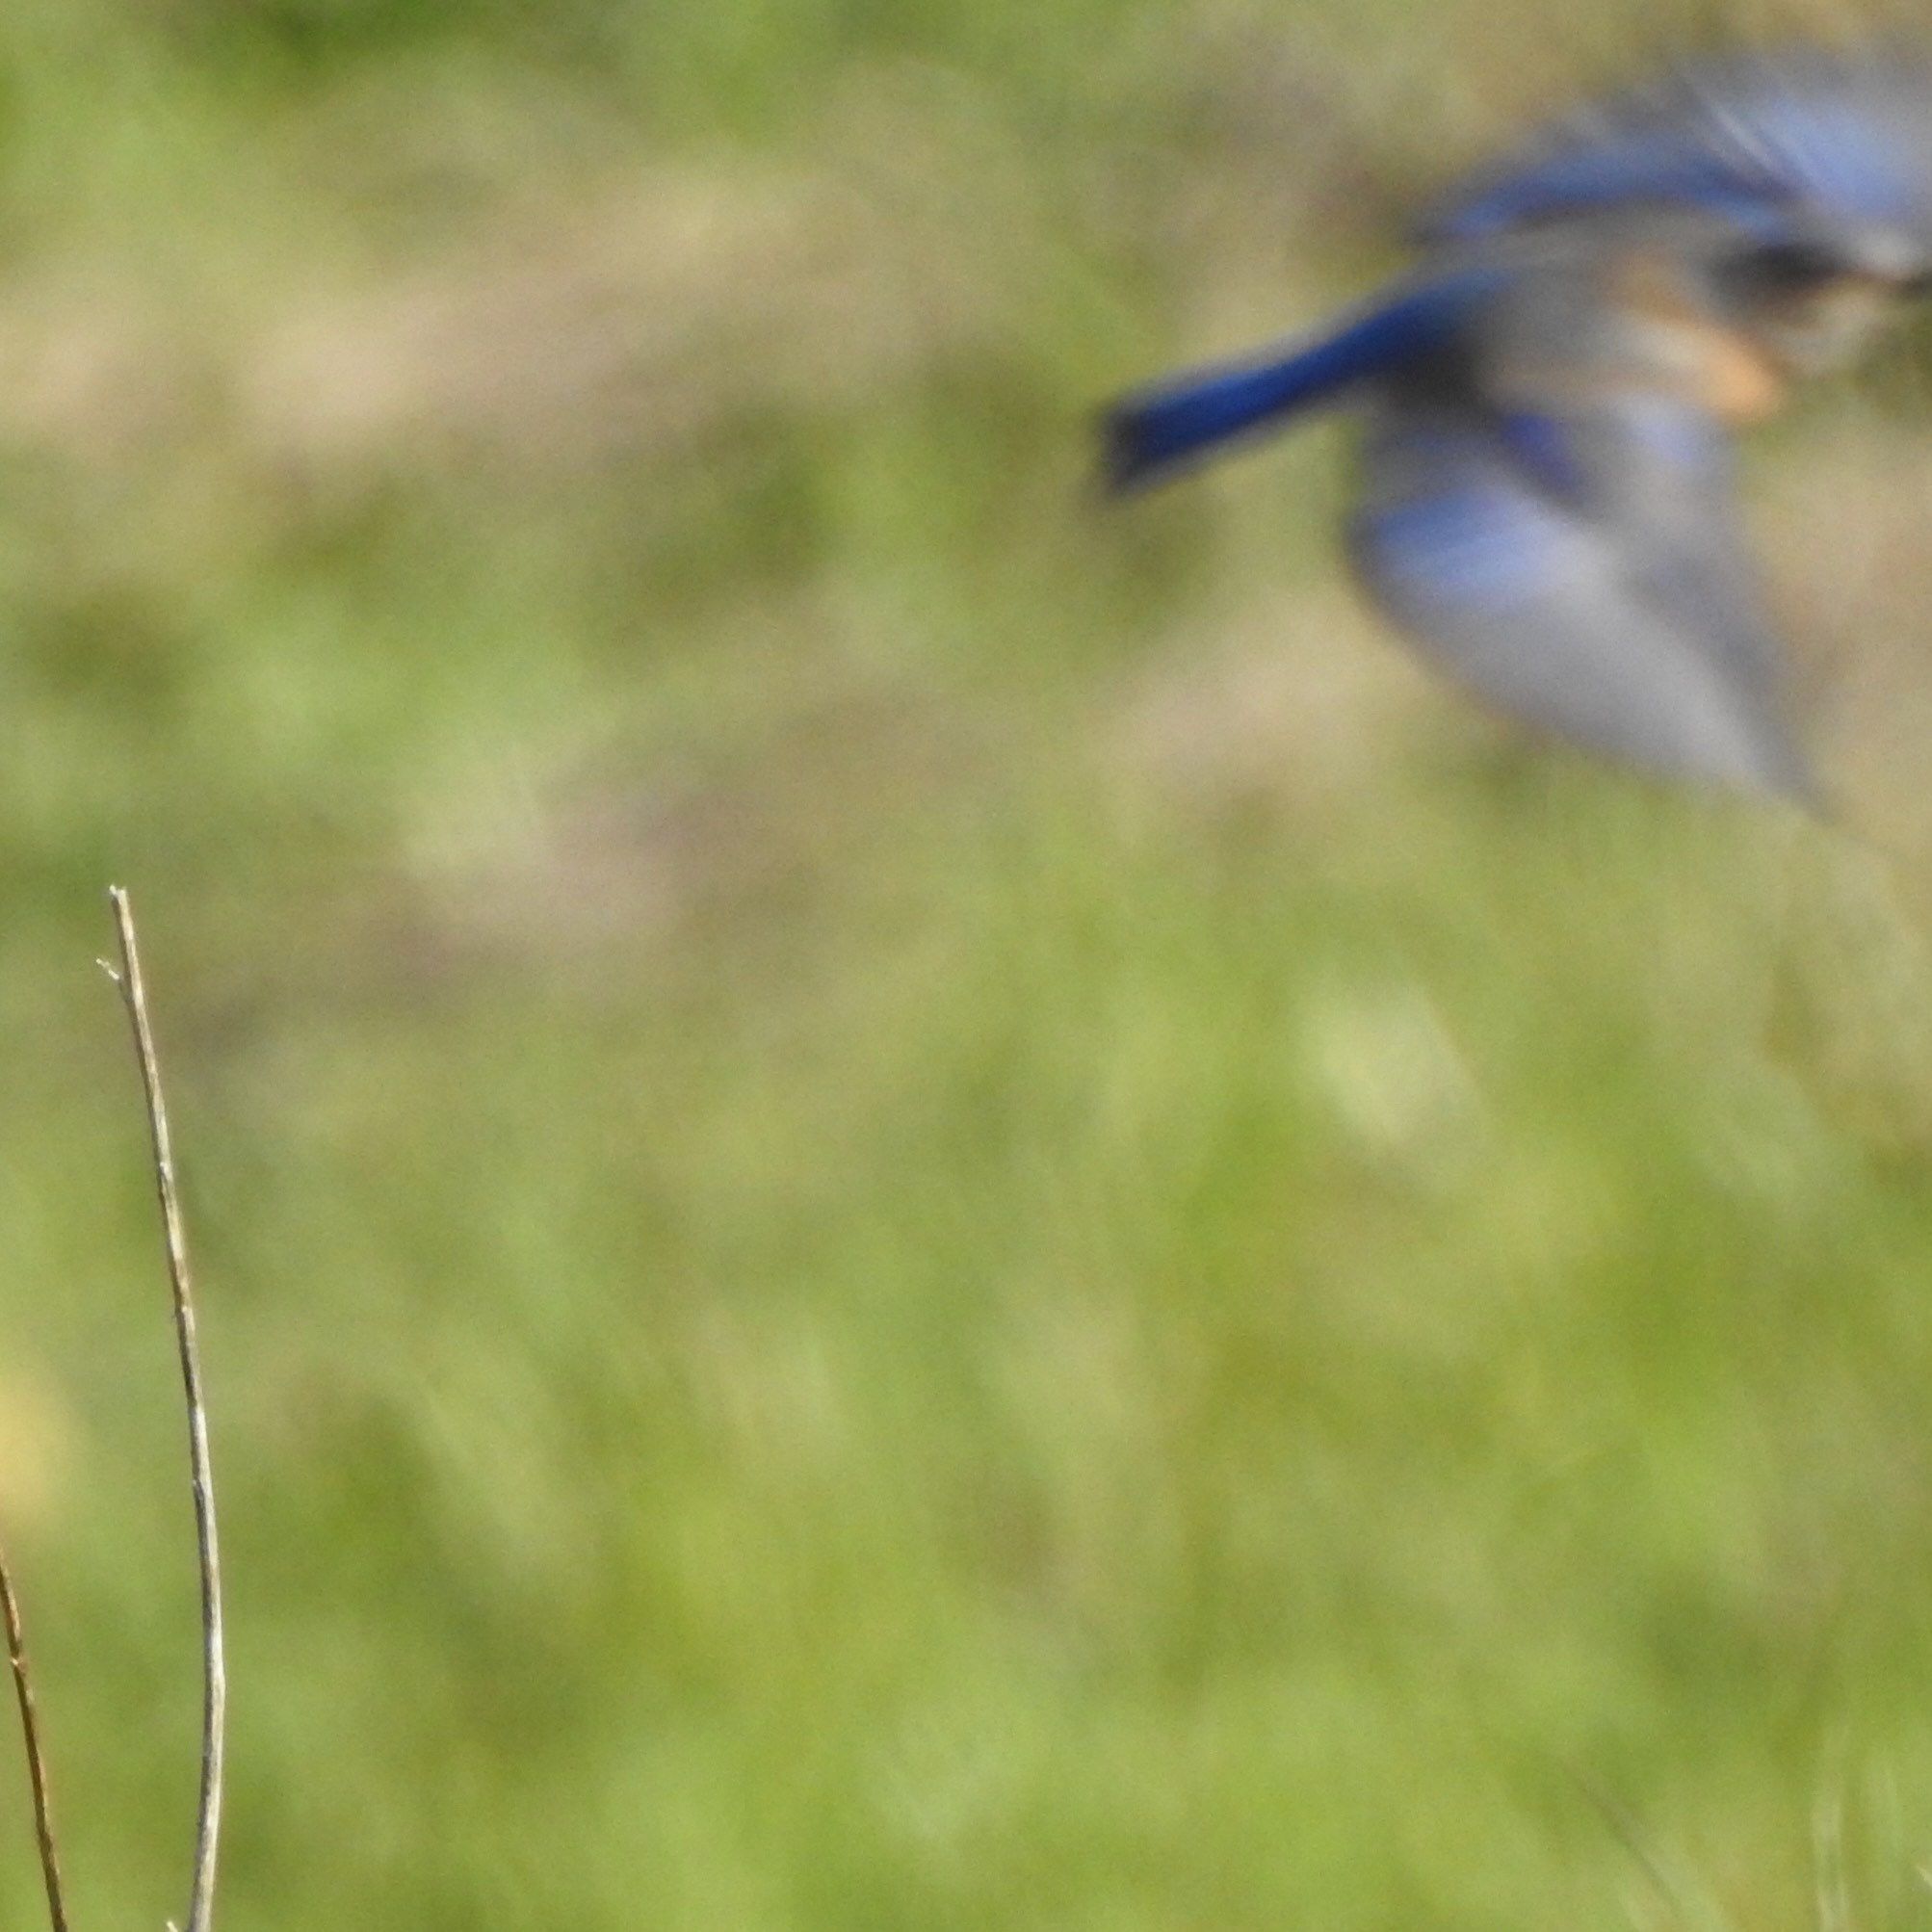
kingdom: Animalia
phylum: Chordata
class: Aves
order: Passeriformes
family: Turdidae
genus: Sialia
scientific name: Sialia mexicana
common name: Western bluebird
